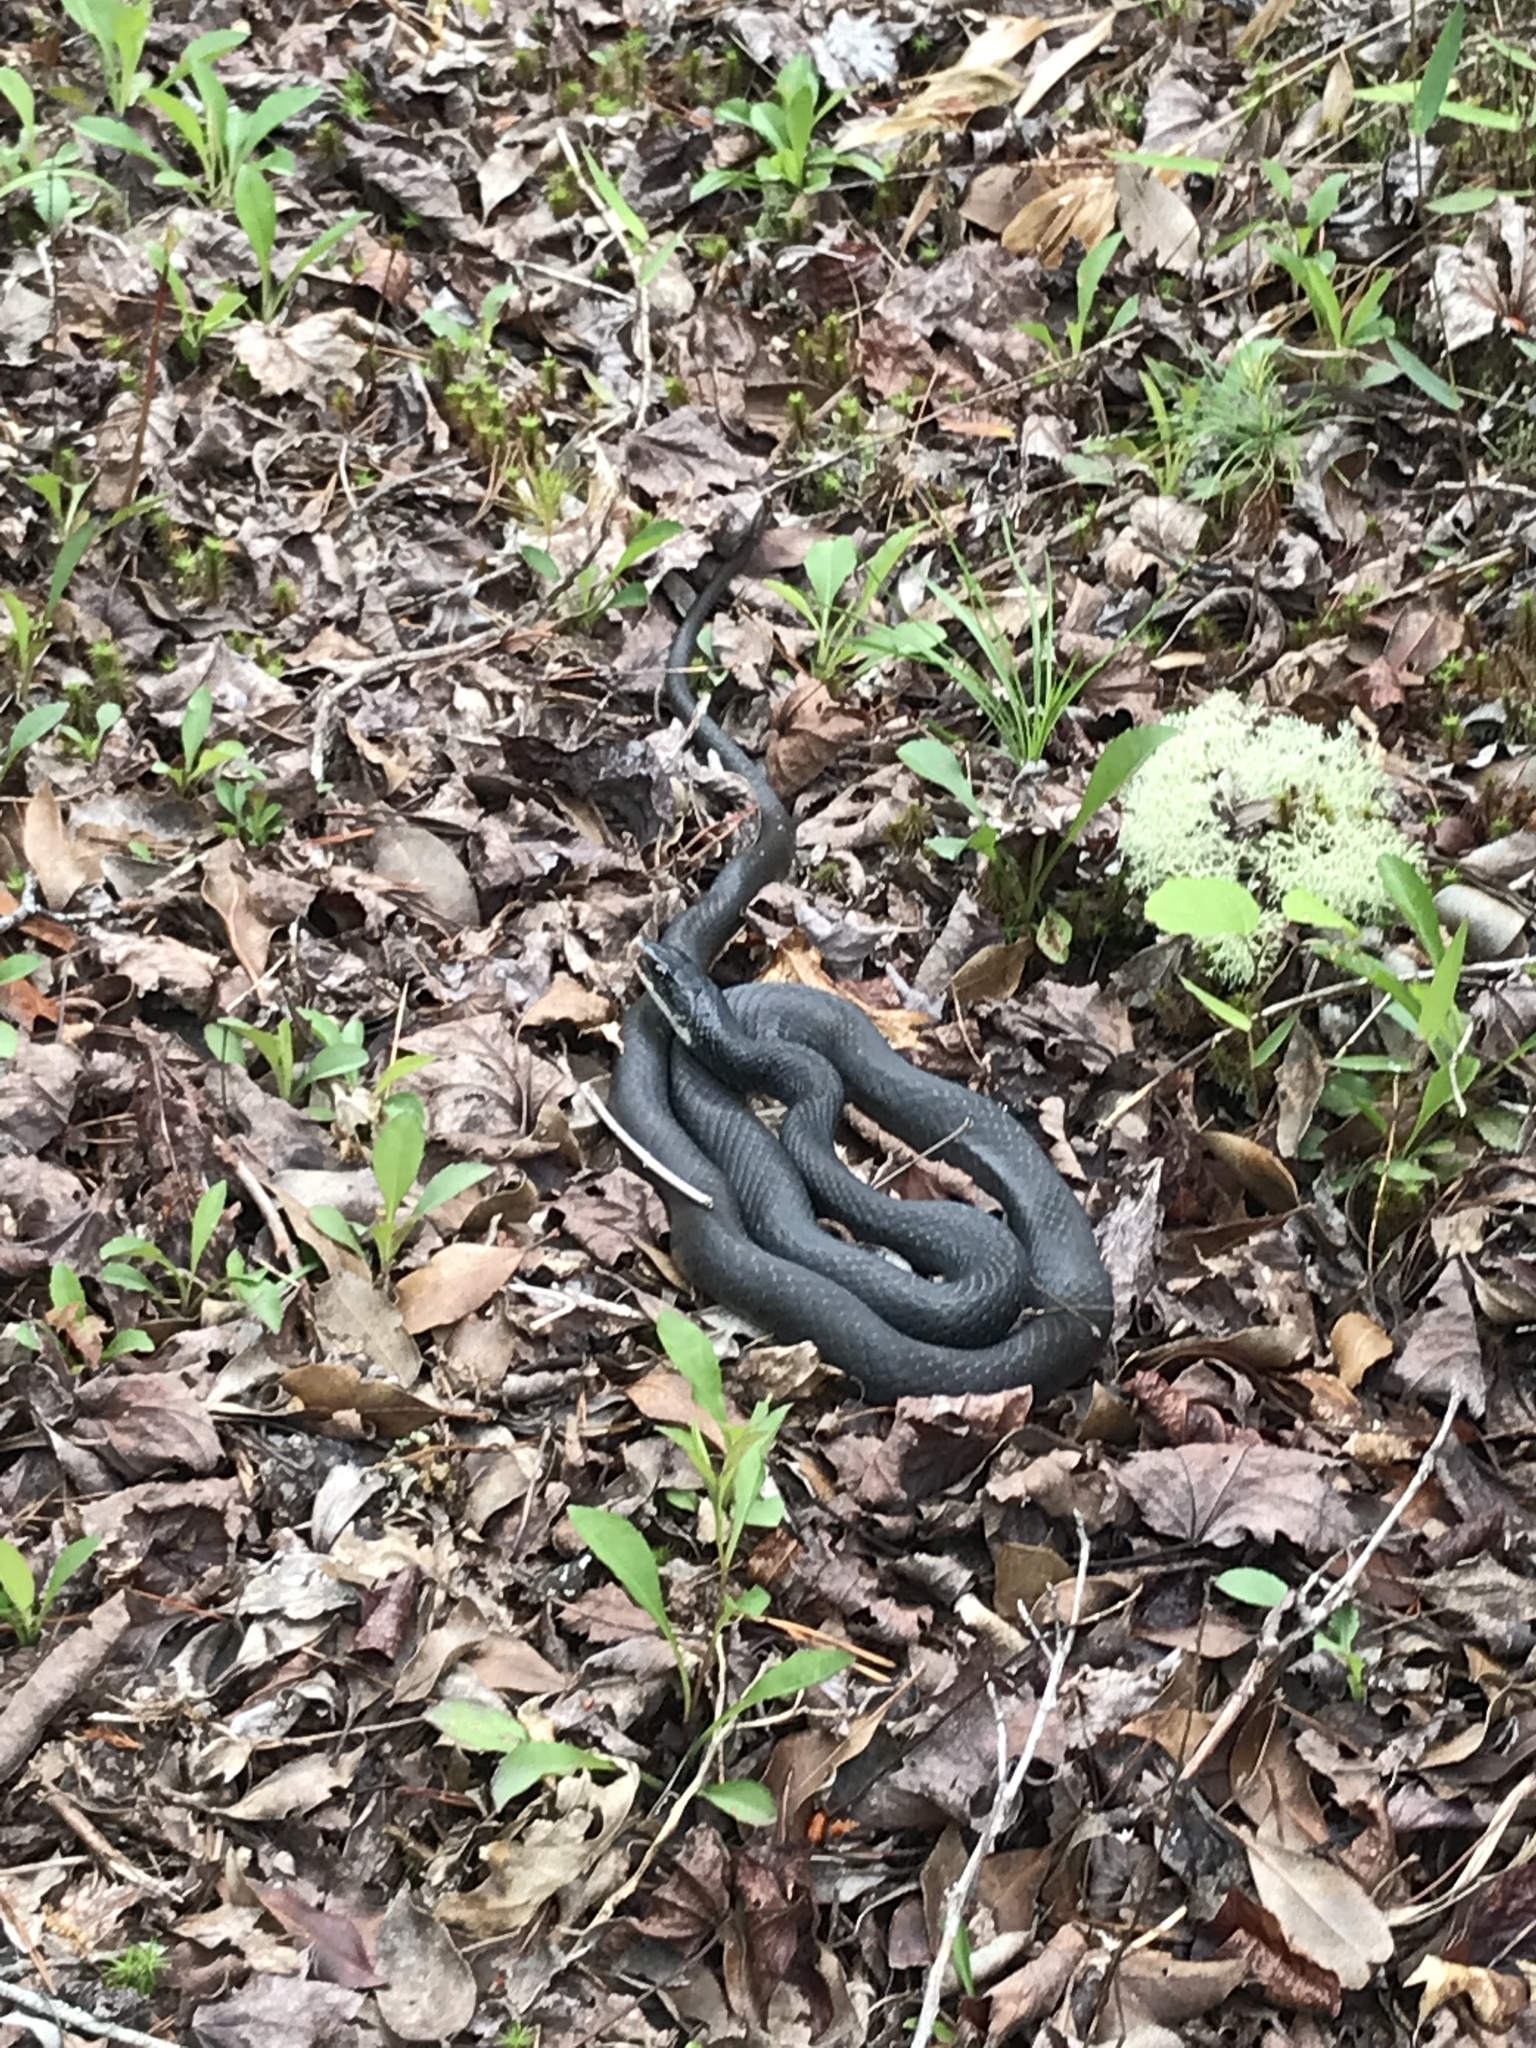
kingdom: Animalia
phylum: Chordata
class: Squamata
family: Colubridae
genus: Coluber
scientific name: Coluber constrictor
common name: Eastern racer
